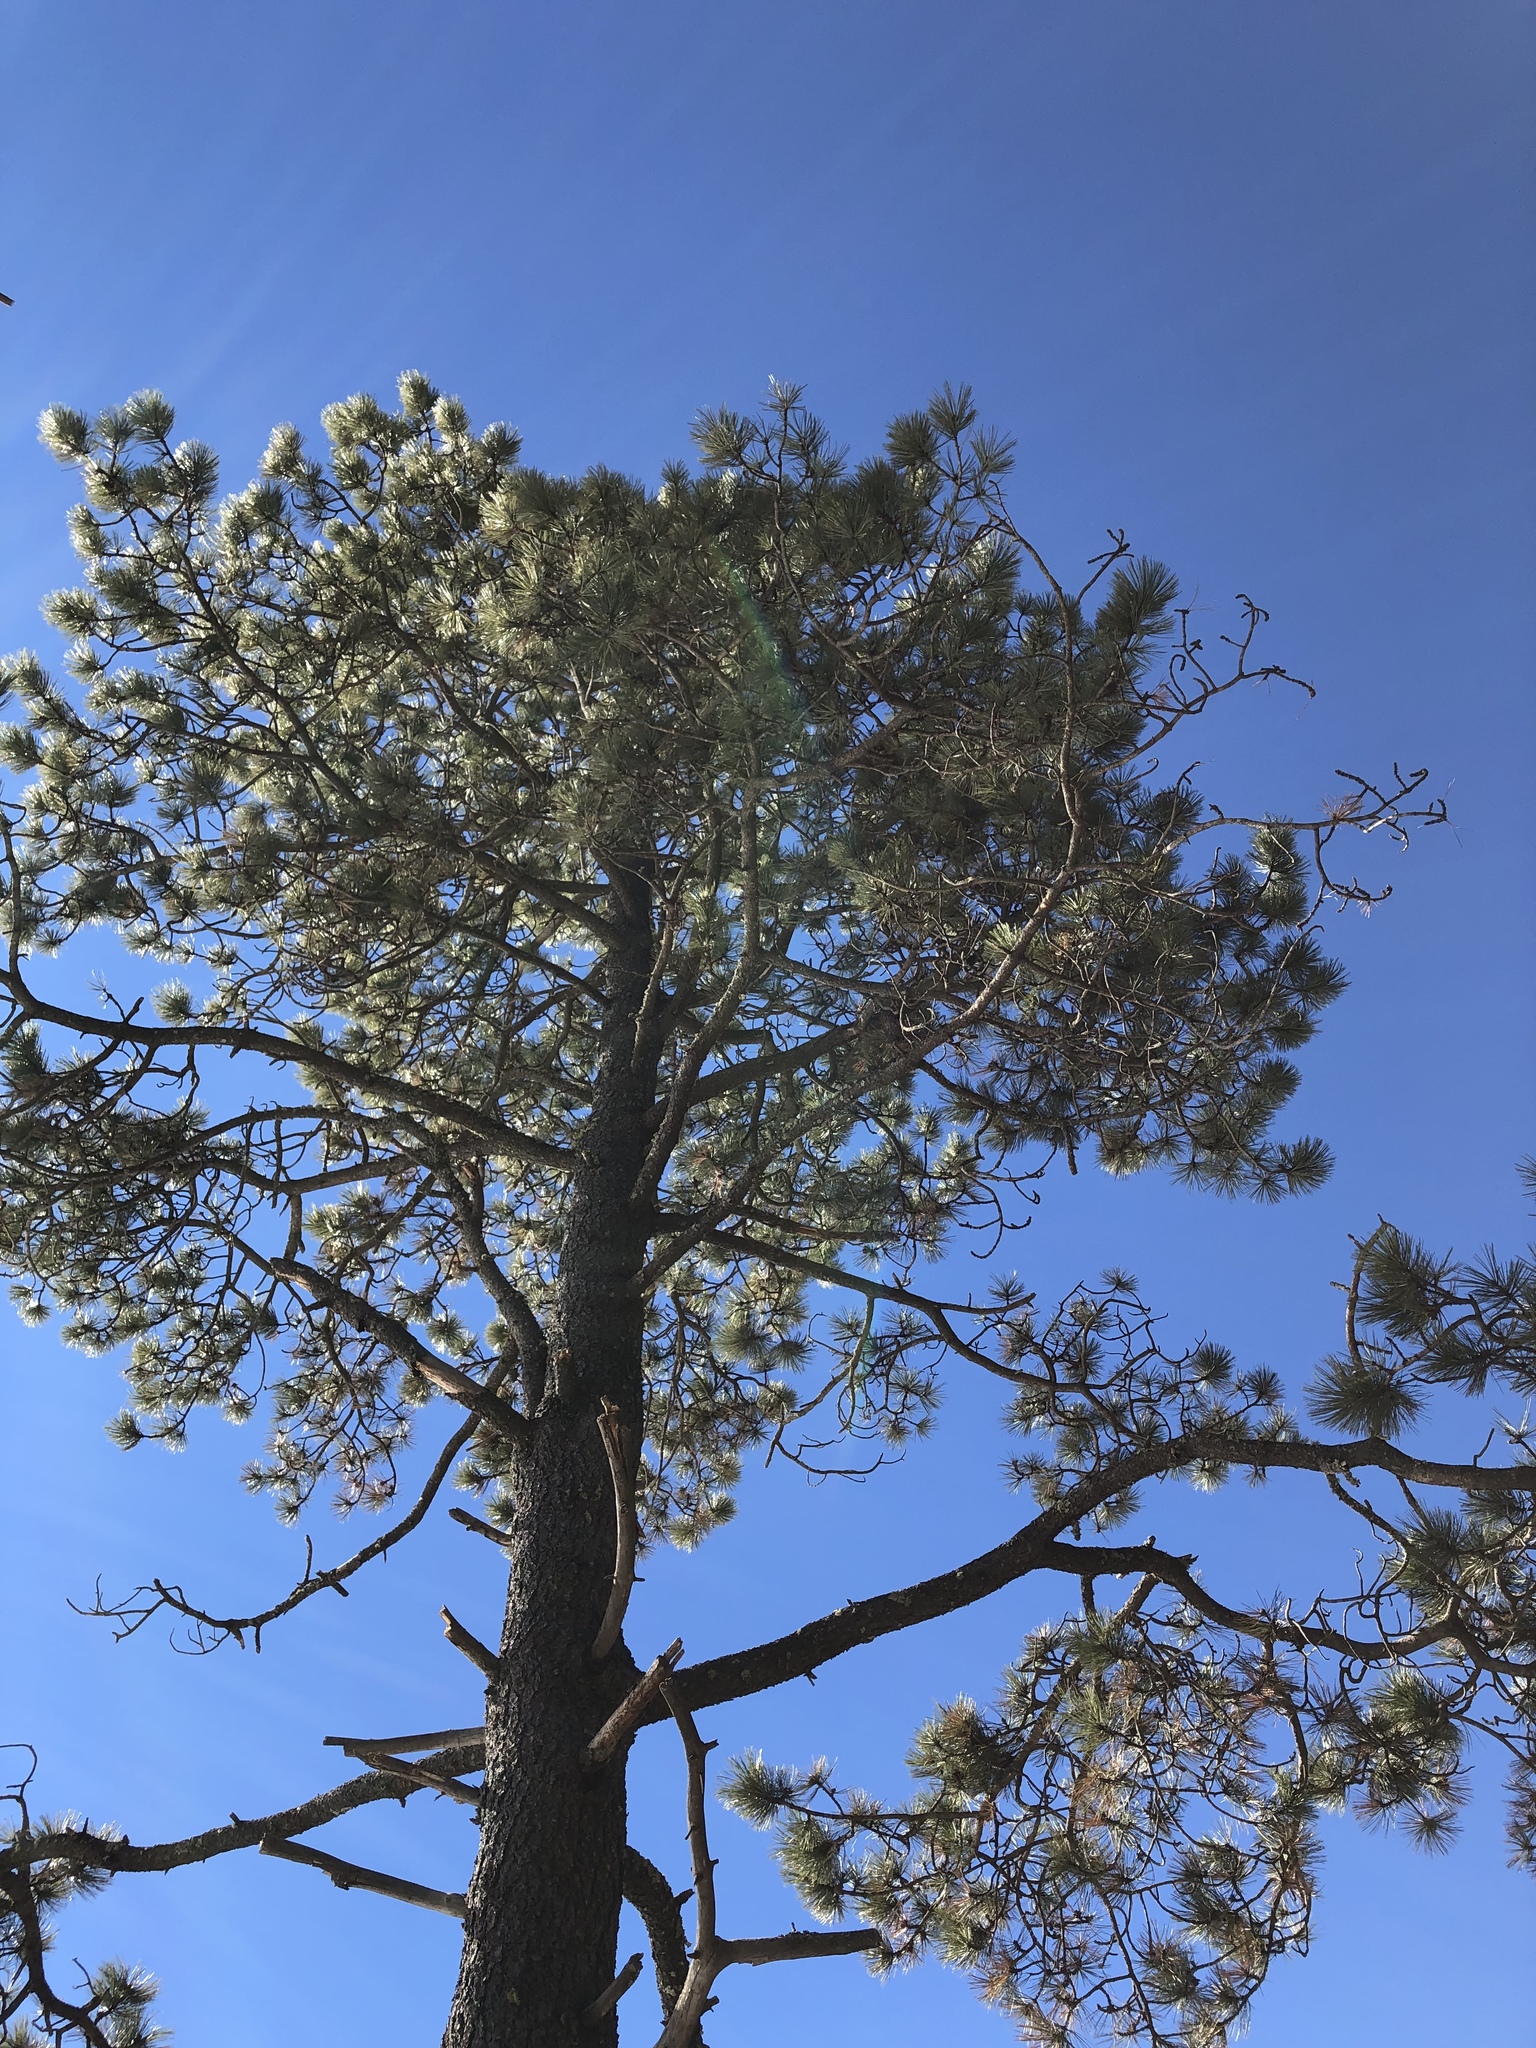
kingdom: Plantae
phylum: Tracheophyta
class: Pinopsida
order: Pinales
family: Pinaceae
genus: Pinus
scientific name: Pinus ponderosa
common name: Western yellow-pine
